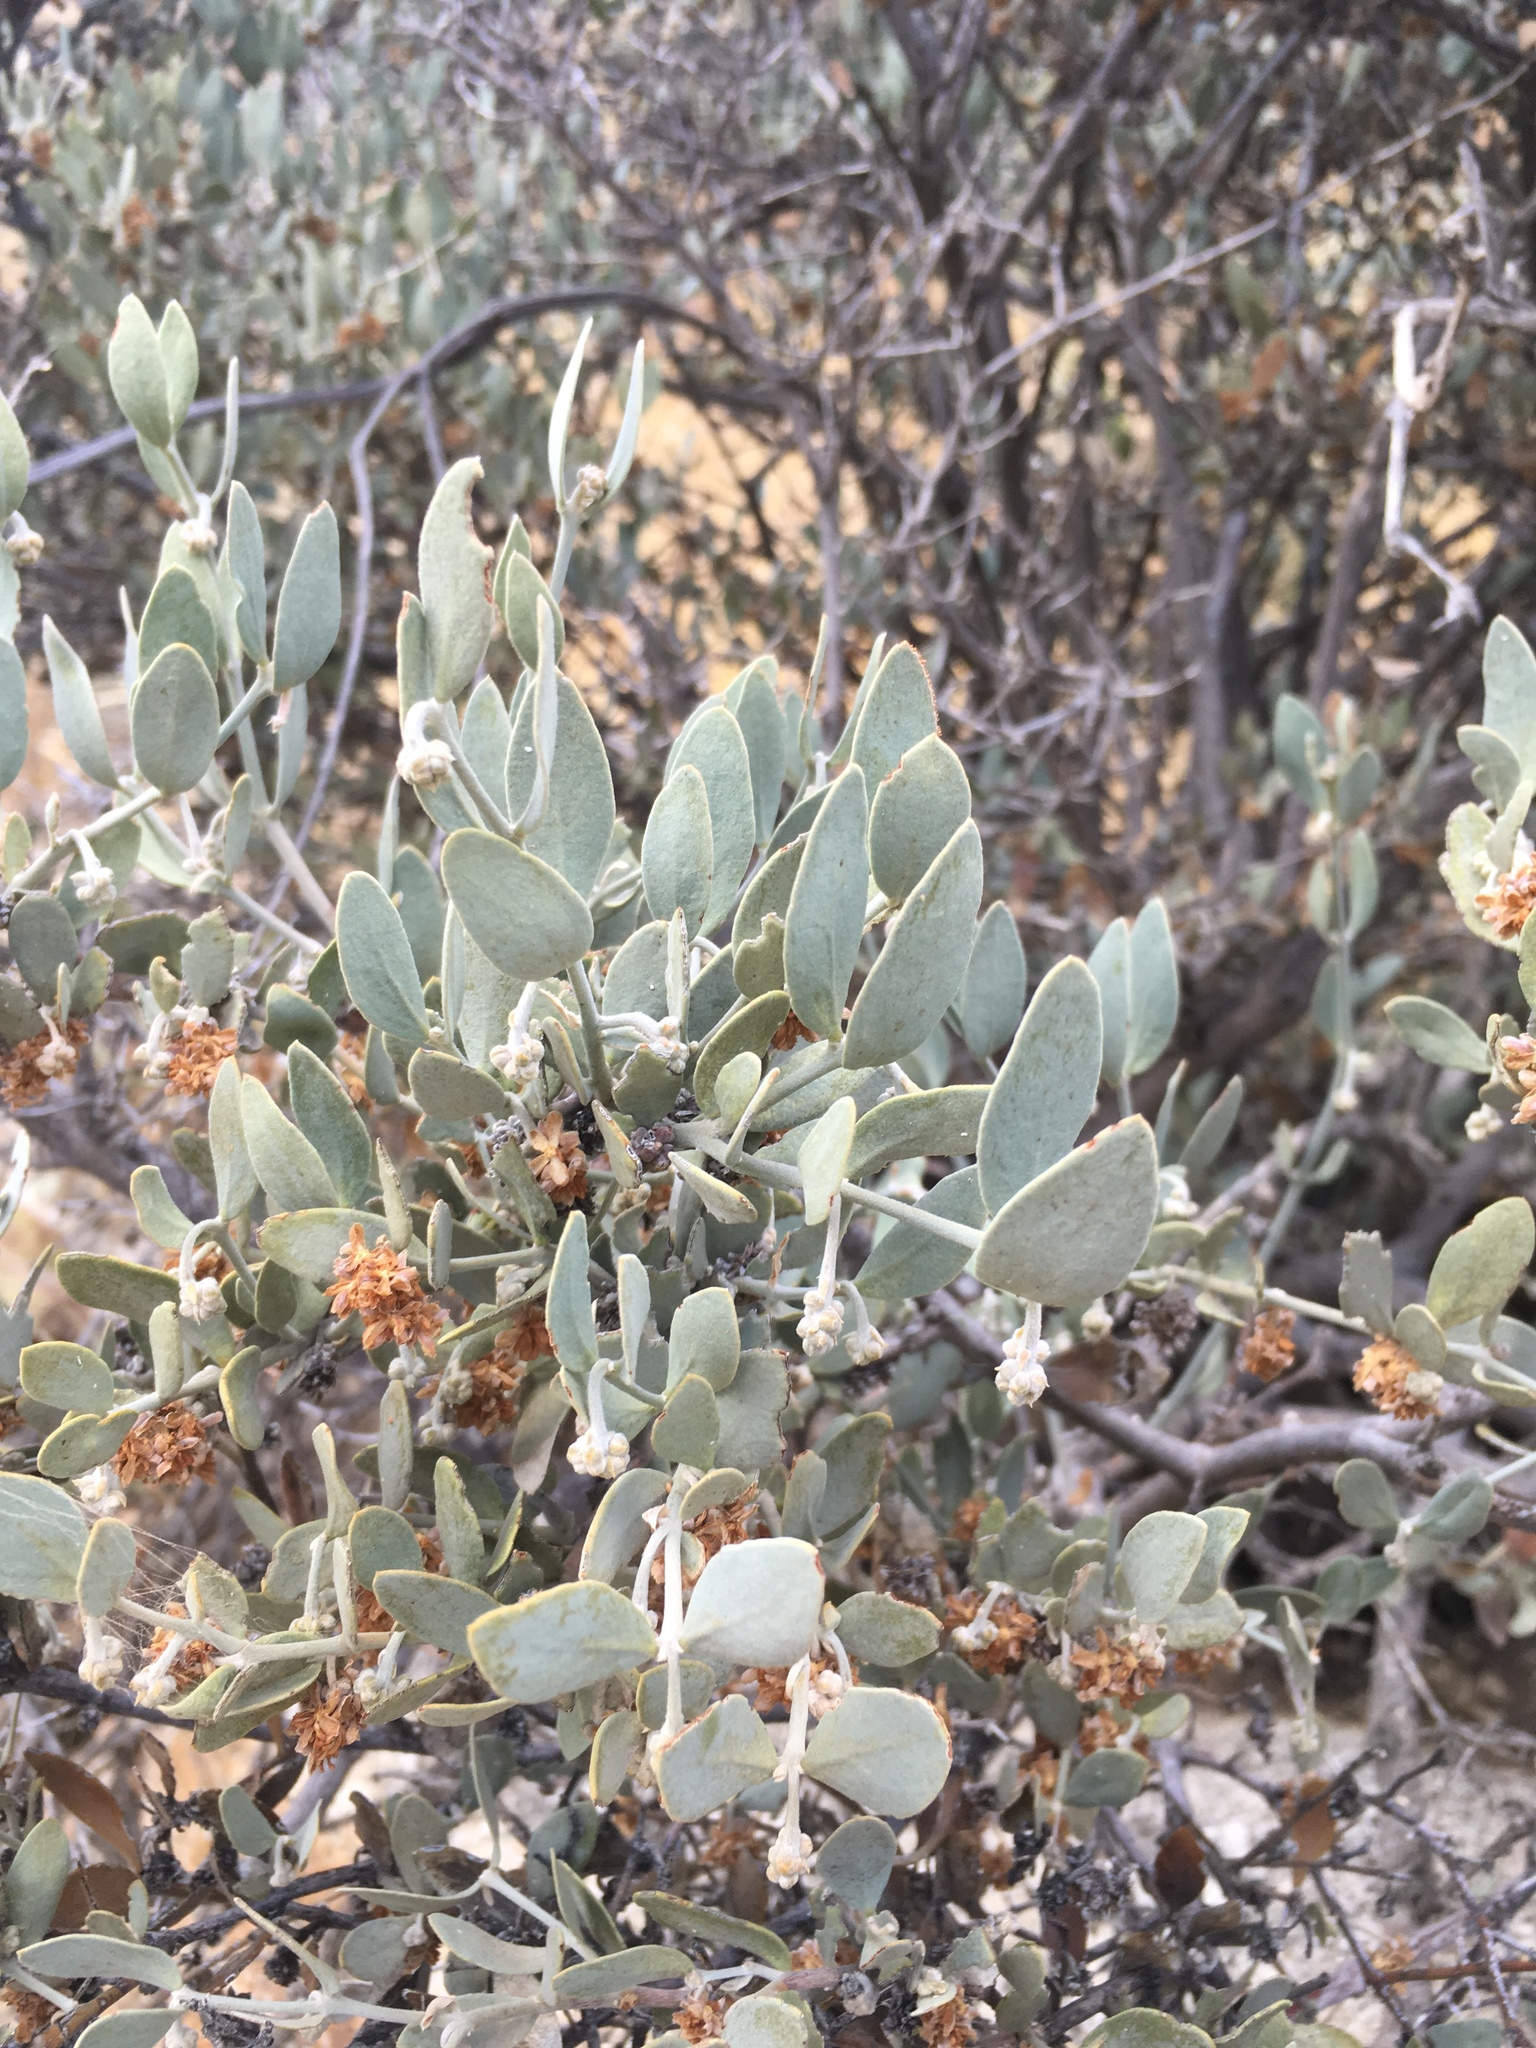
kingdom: Plantae
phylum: Tracheophyta
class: Magnoliopsida
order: Caryophyllales
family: Simmondsiaceae
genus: Simmondsia
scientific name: Simmondsia chinensis
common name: Jojoba
